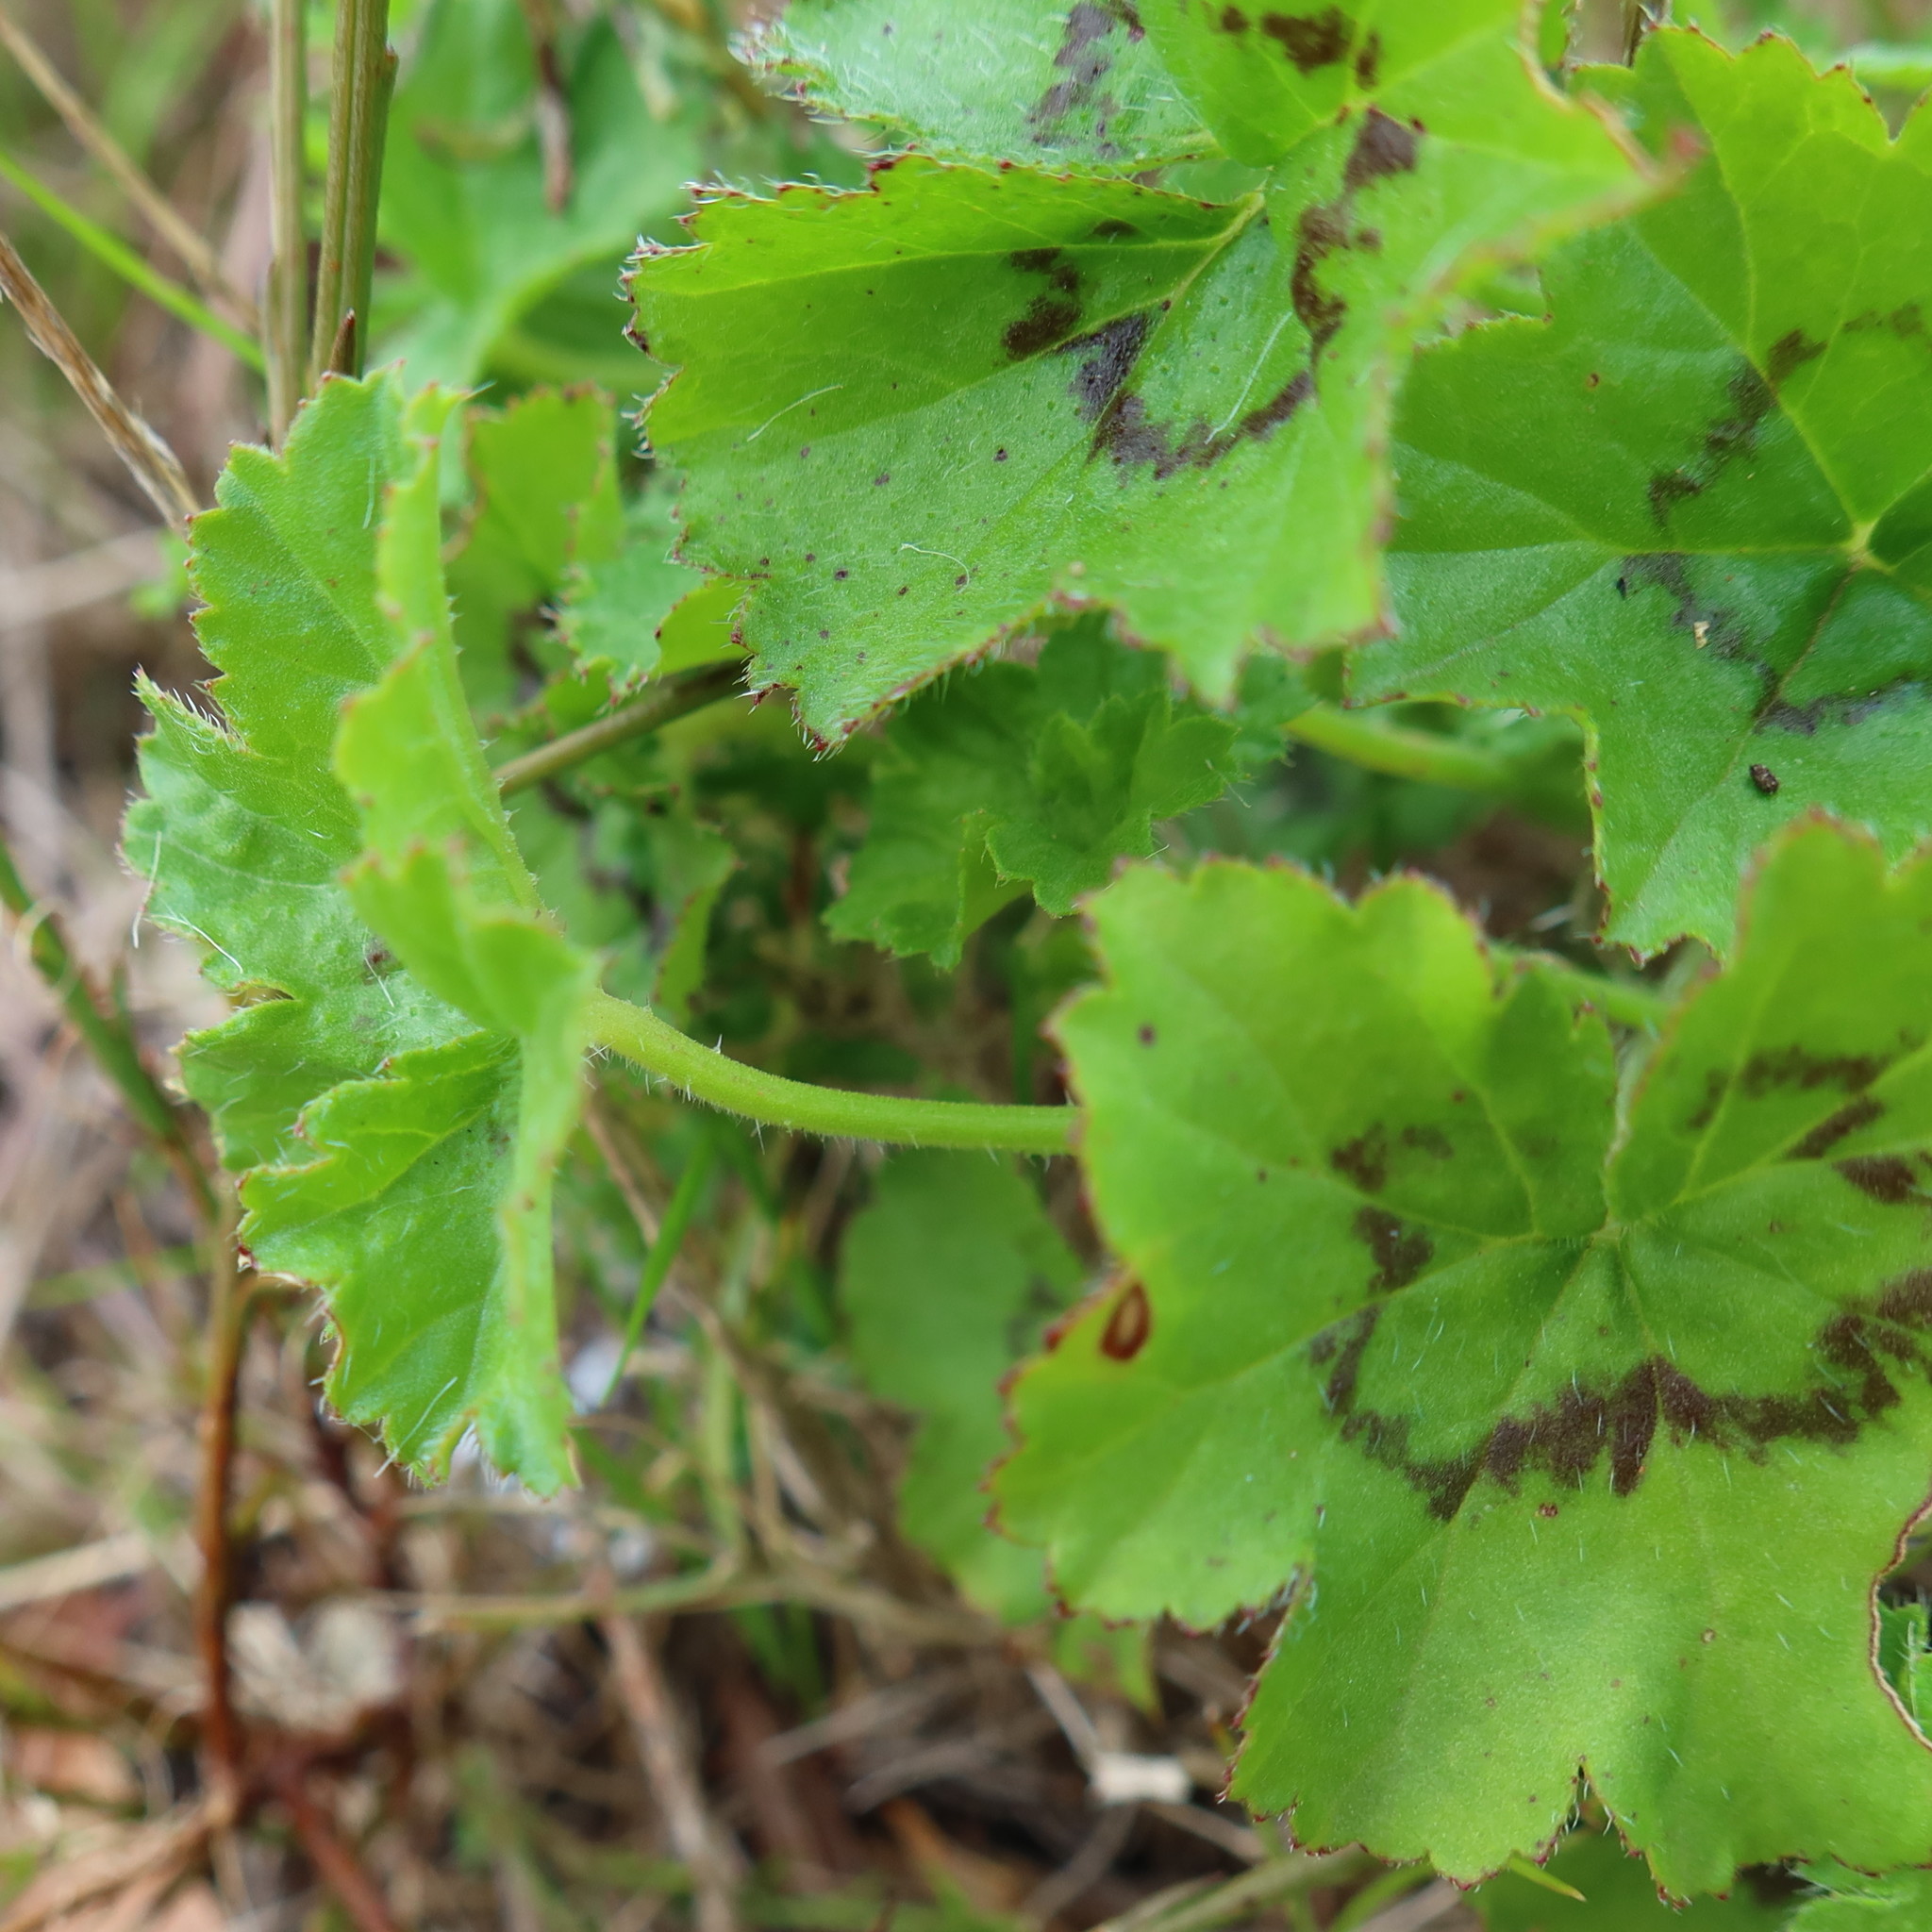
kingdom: Plantae
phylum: Tracheophyta
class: Magnoliopsida
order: Geraniales
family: Geraniaceae
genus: Pelargonium
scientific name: Pelargonium elongatum
